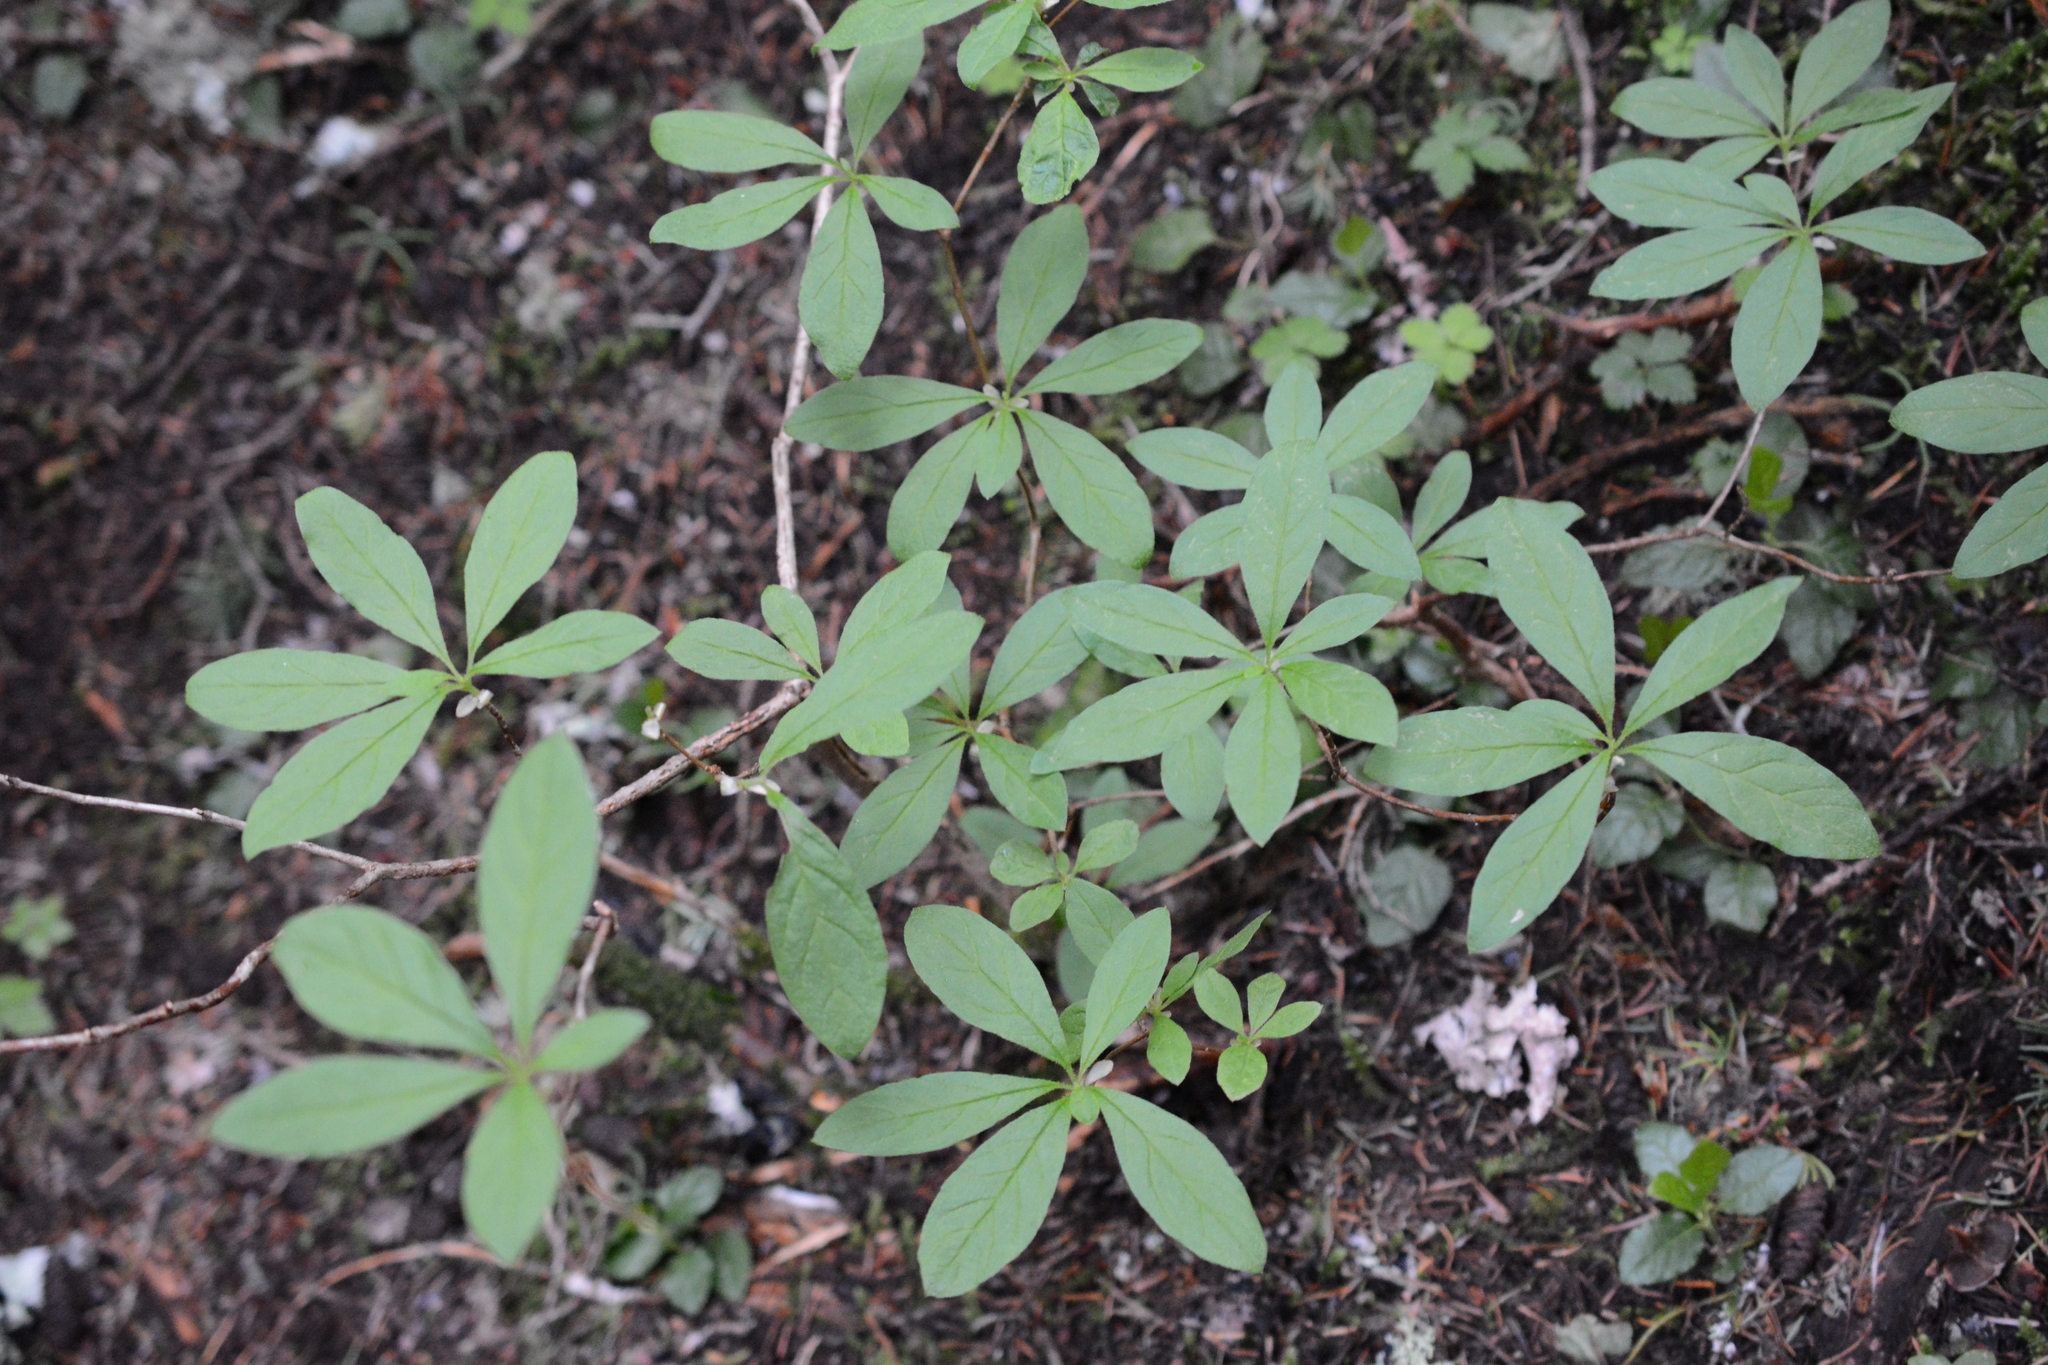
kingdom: Plantae
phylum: Tracheophyta
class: Magnoliopsida
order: Ericales
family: Ericaceae
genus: Rhododendron
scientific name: Rhododendron menziesii
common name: Pacific menziesia
